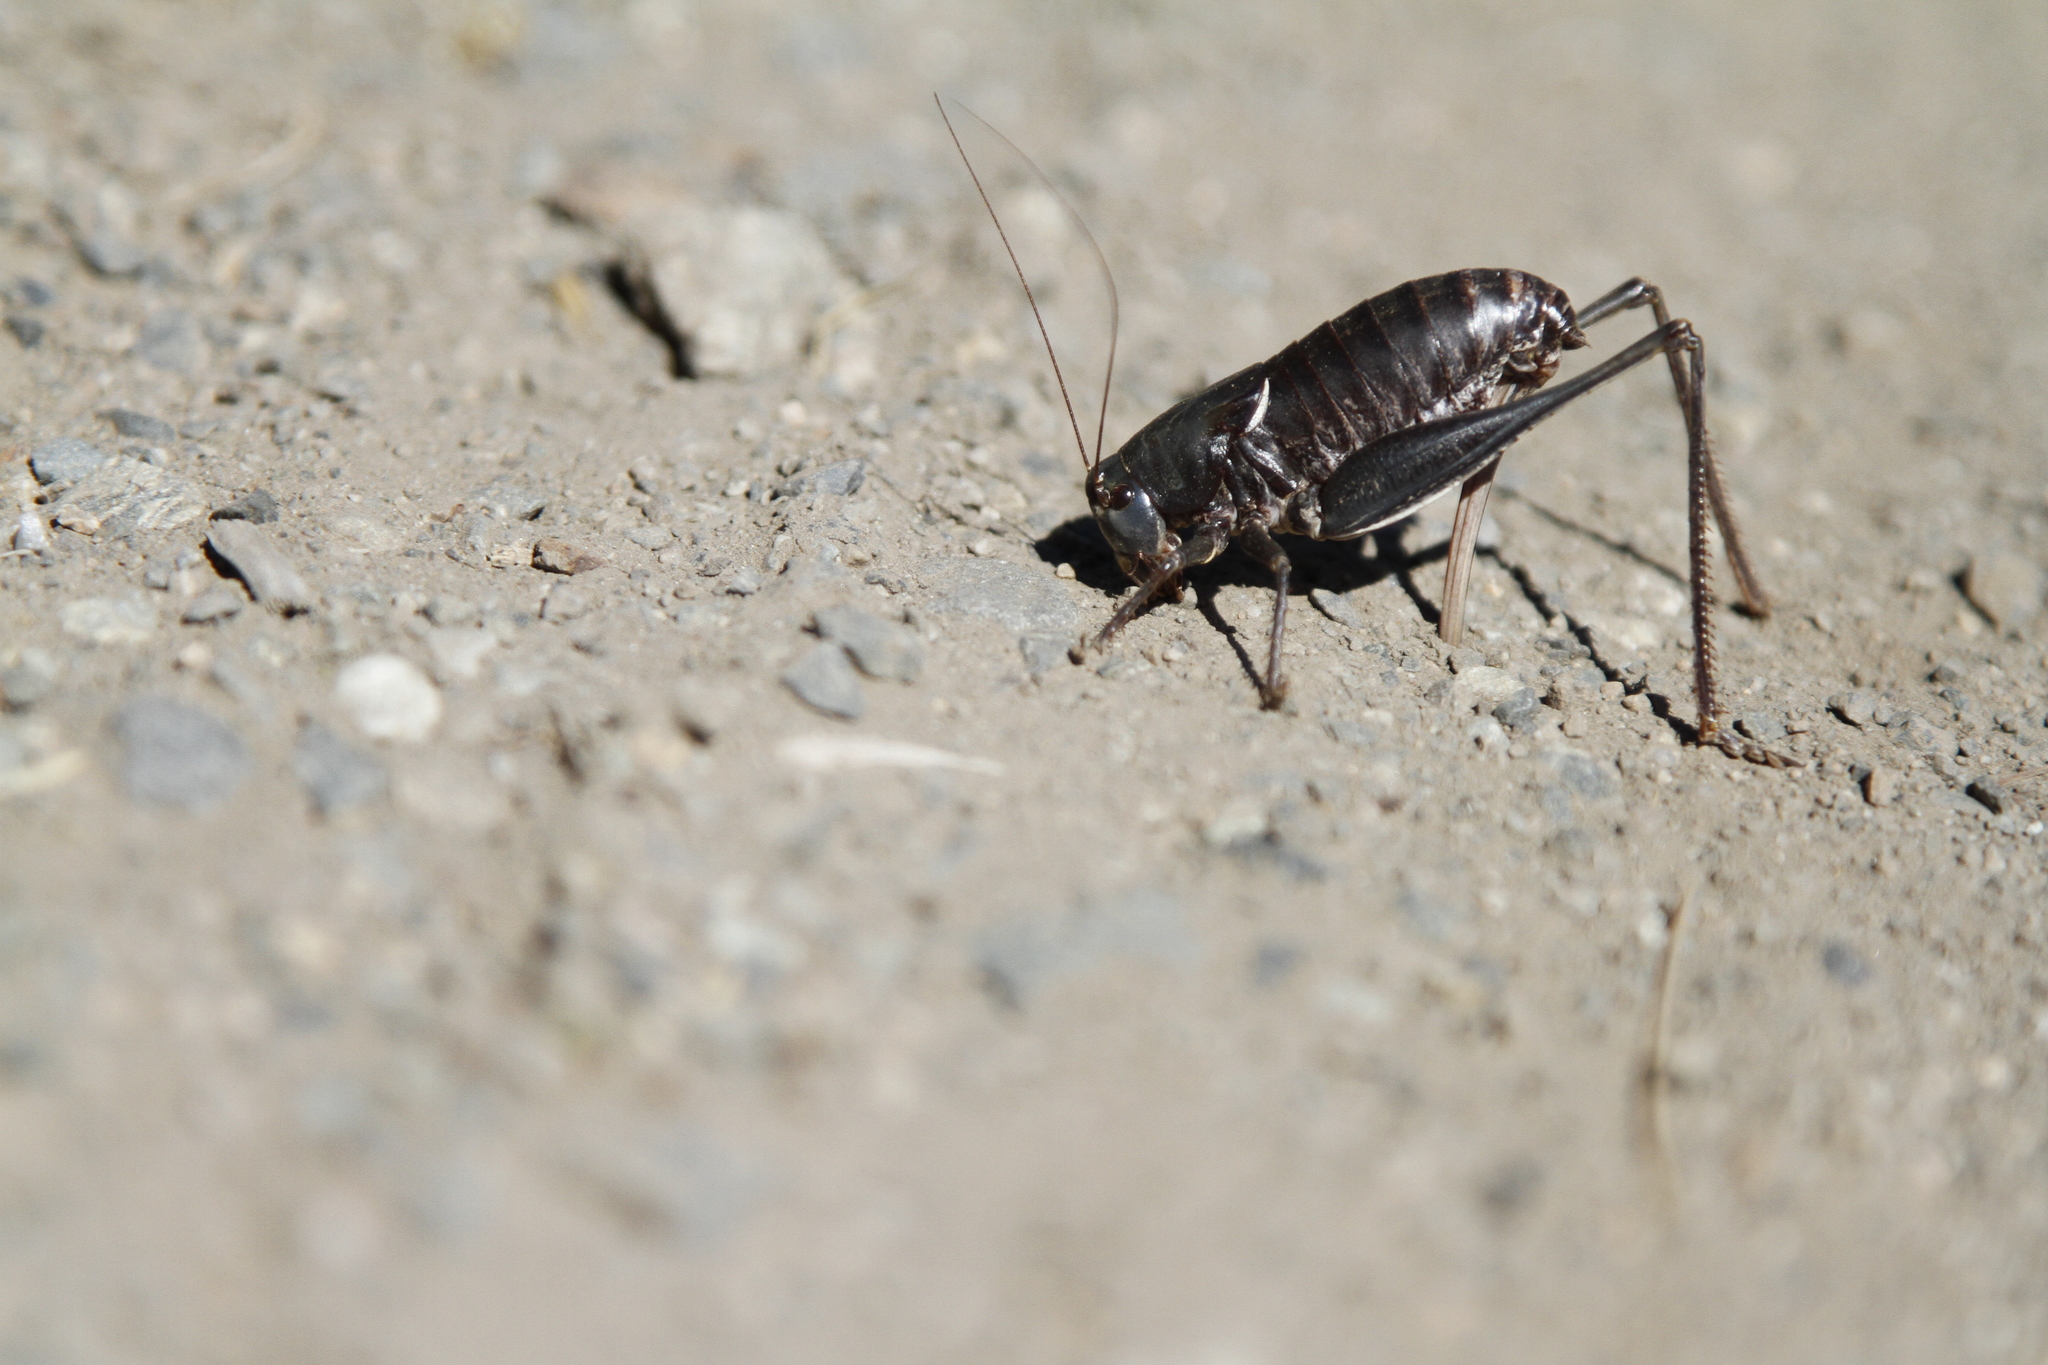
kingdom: Animalia
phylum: Arthropoda
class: Insecta
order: Orthoptera
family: Tettigoniidae
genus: Anabrus
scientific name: Anabrus longipes
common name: Long-legged anabrus
